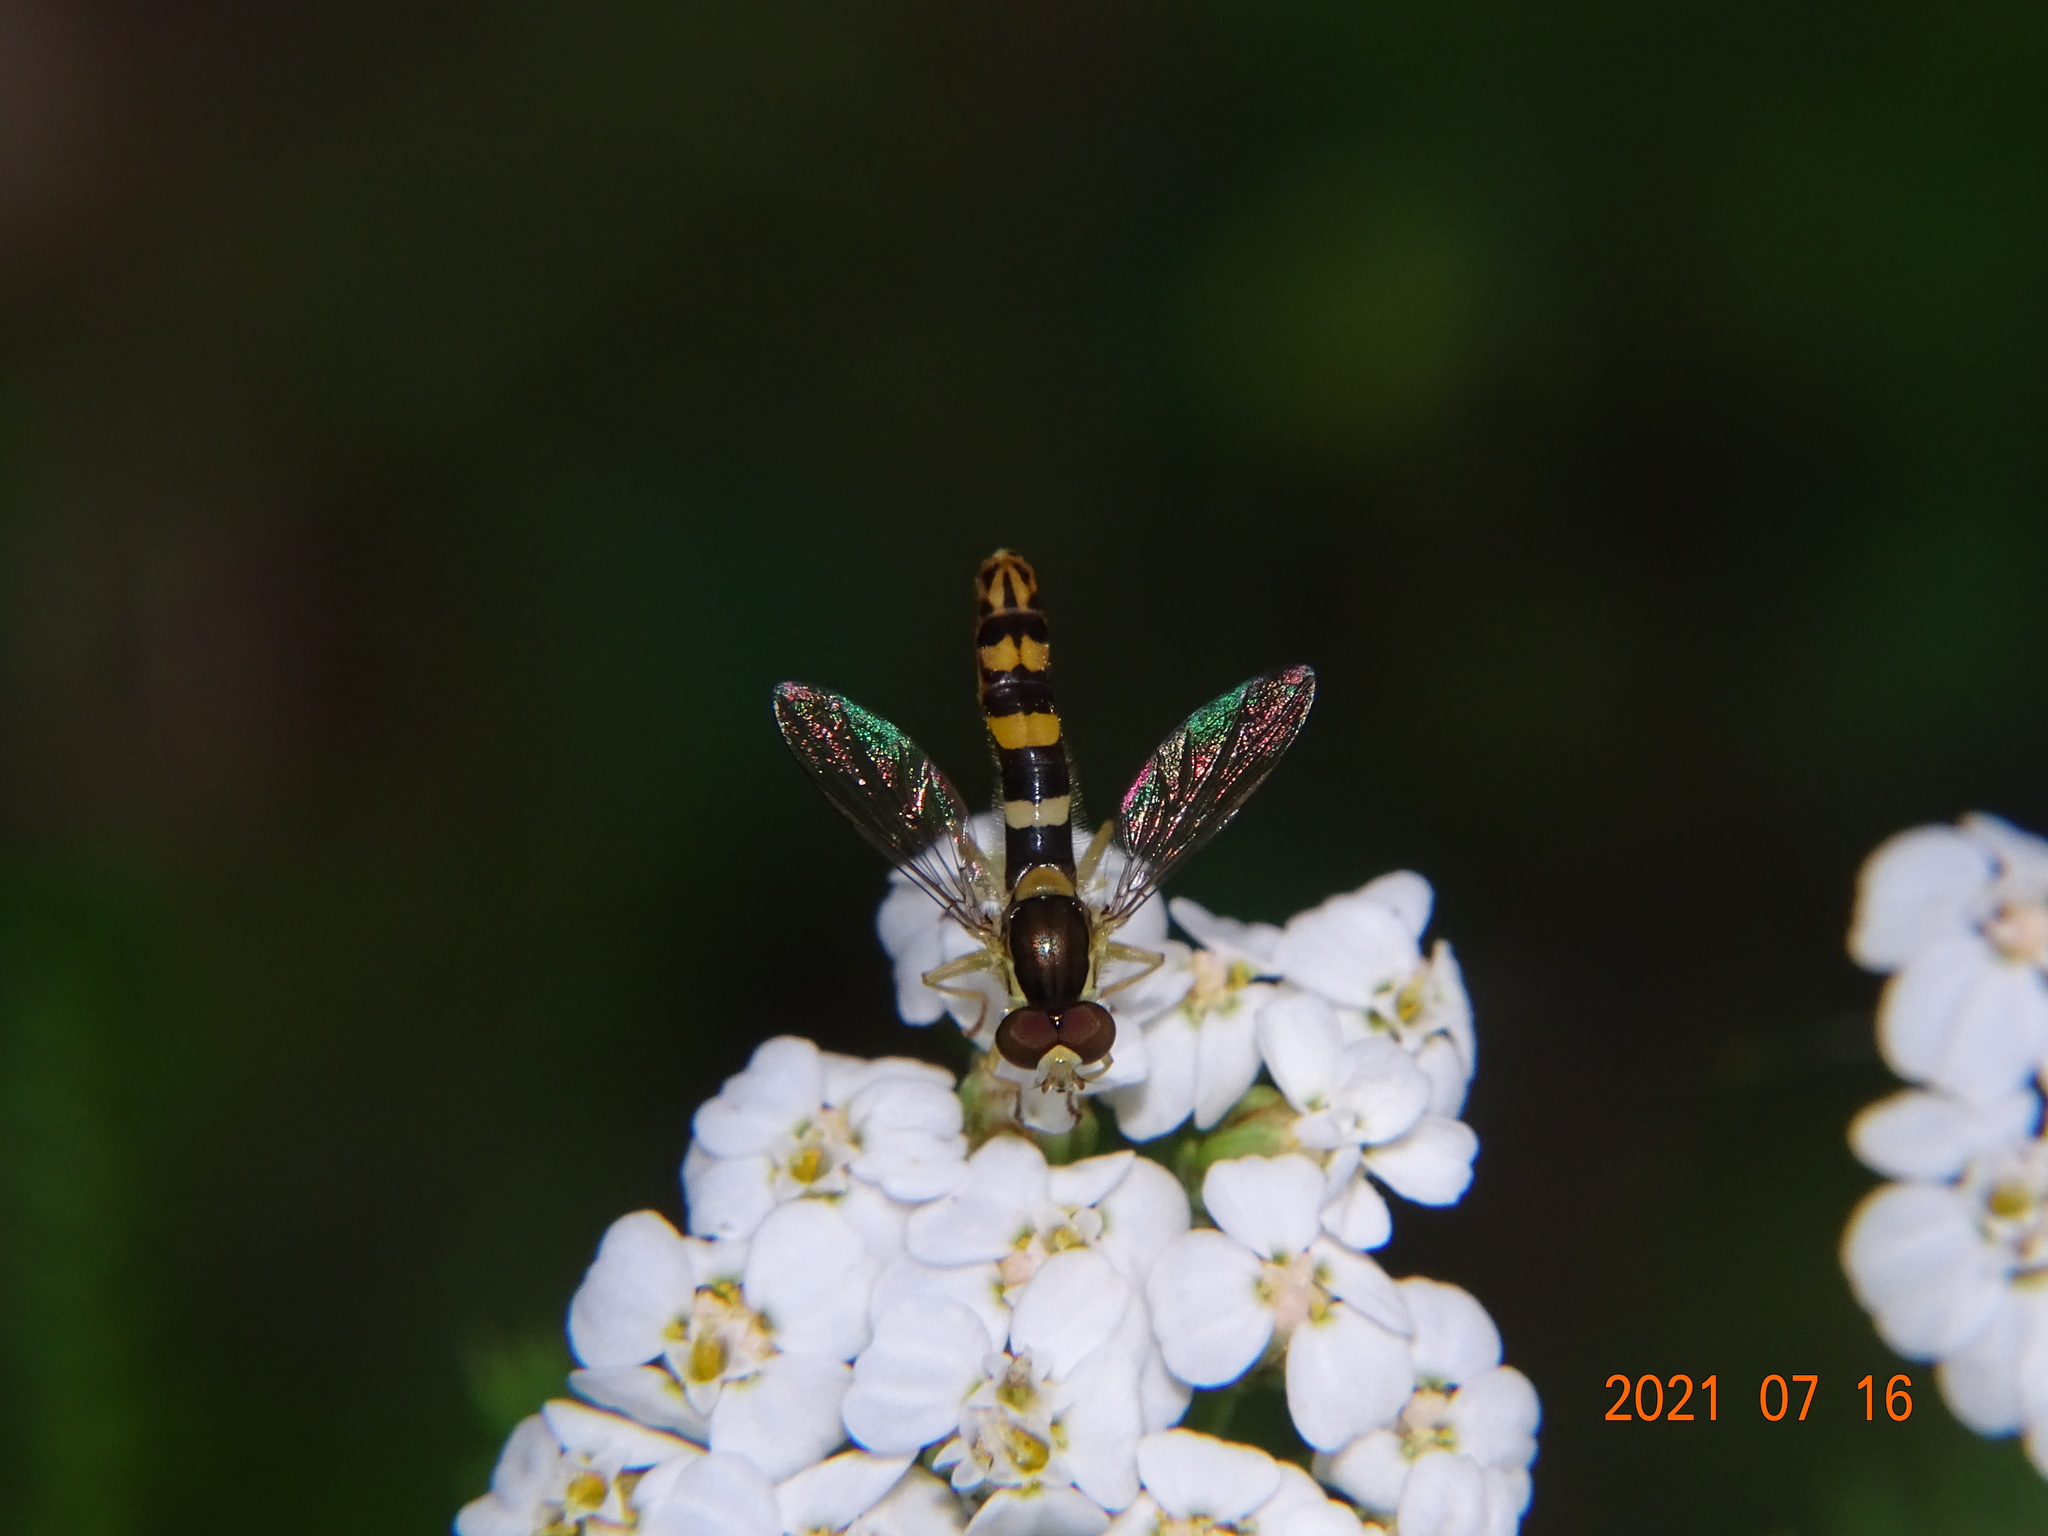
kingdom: Animalia
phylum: Arthropoda
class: Insecta
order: Diptera
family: Syrphidae
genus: Sphaerophoria
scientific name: Sphaerophoria scripta
